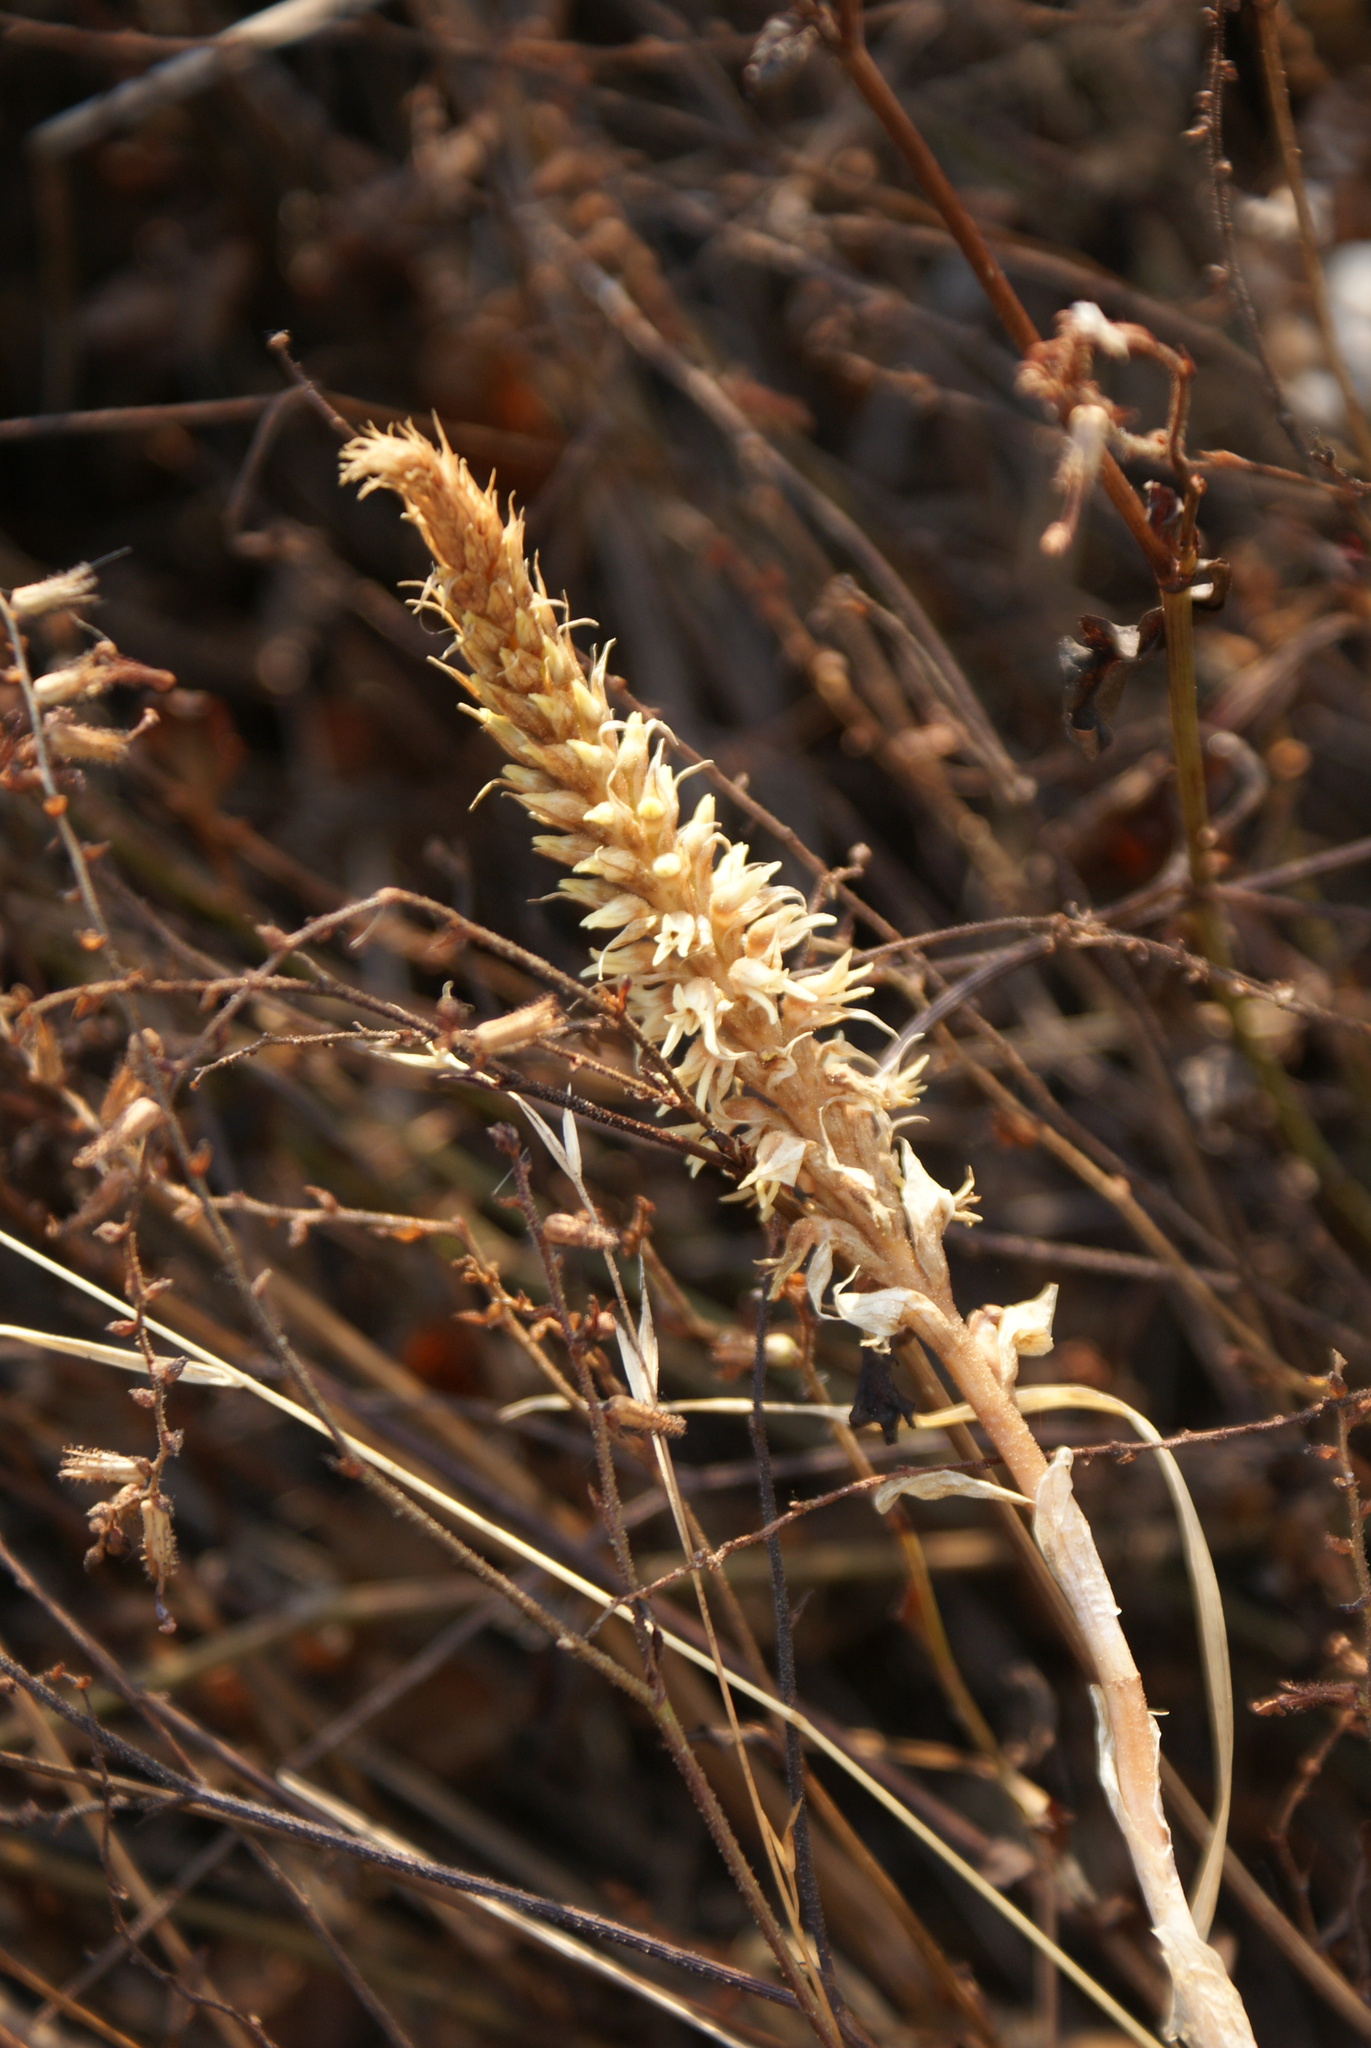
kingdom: Plantae
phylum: Tracheophyta
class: Liliopsida
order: Asparagales
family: Orchidaceae
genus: Aulosepalum
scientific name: Aulosepalum pyramidale
